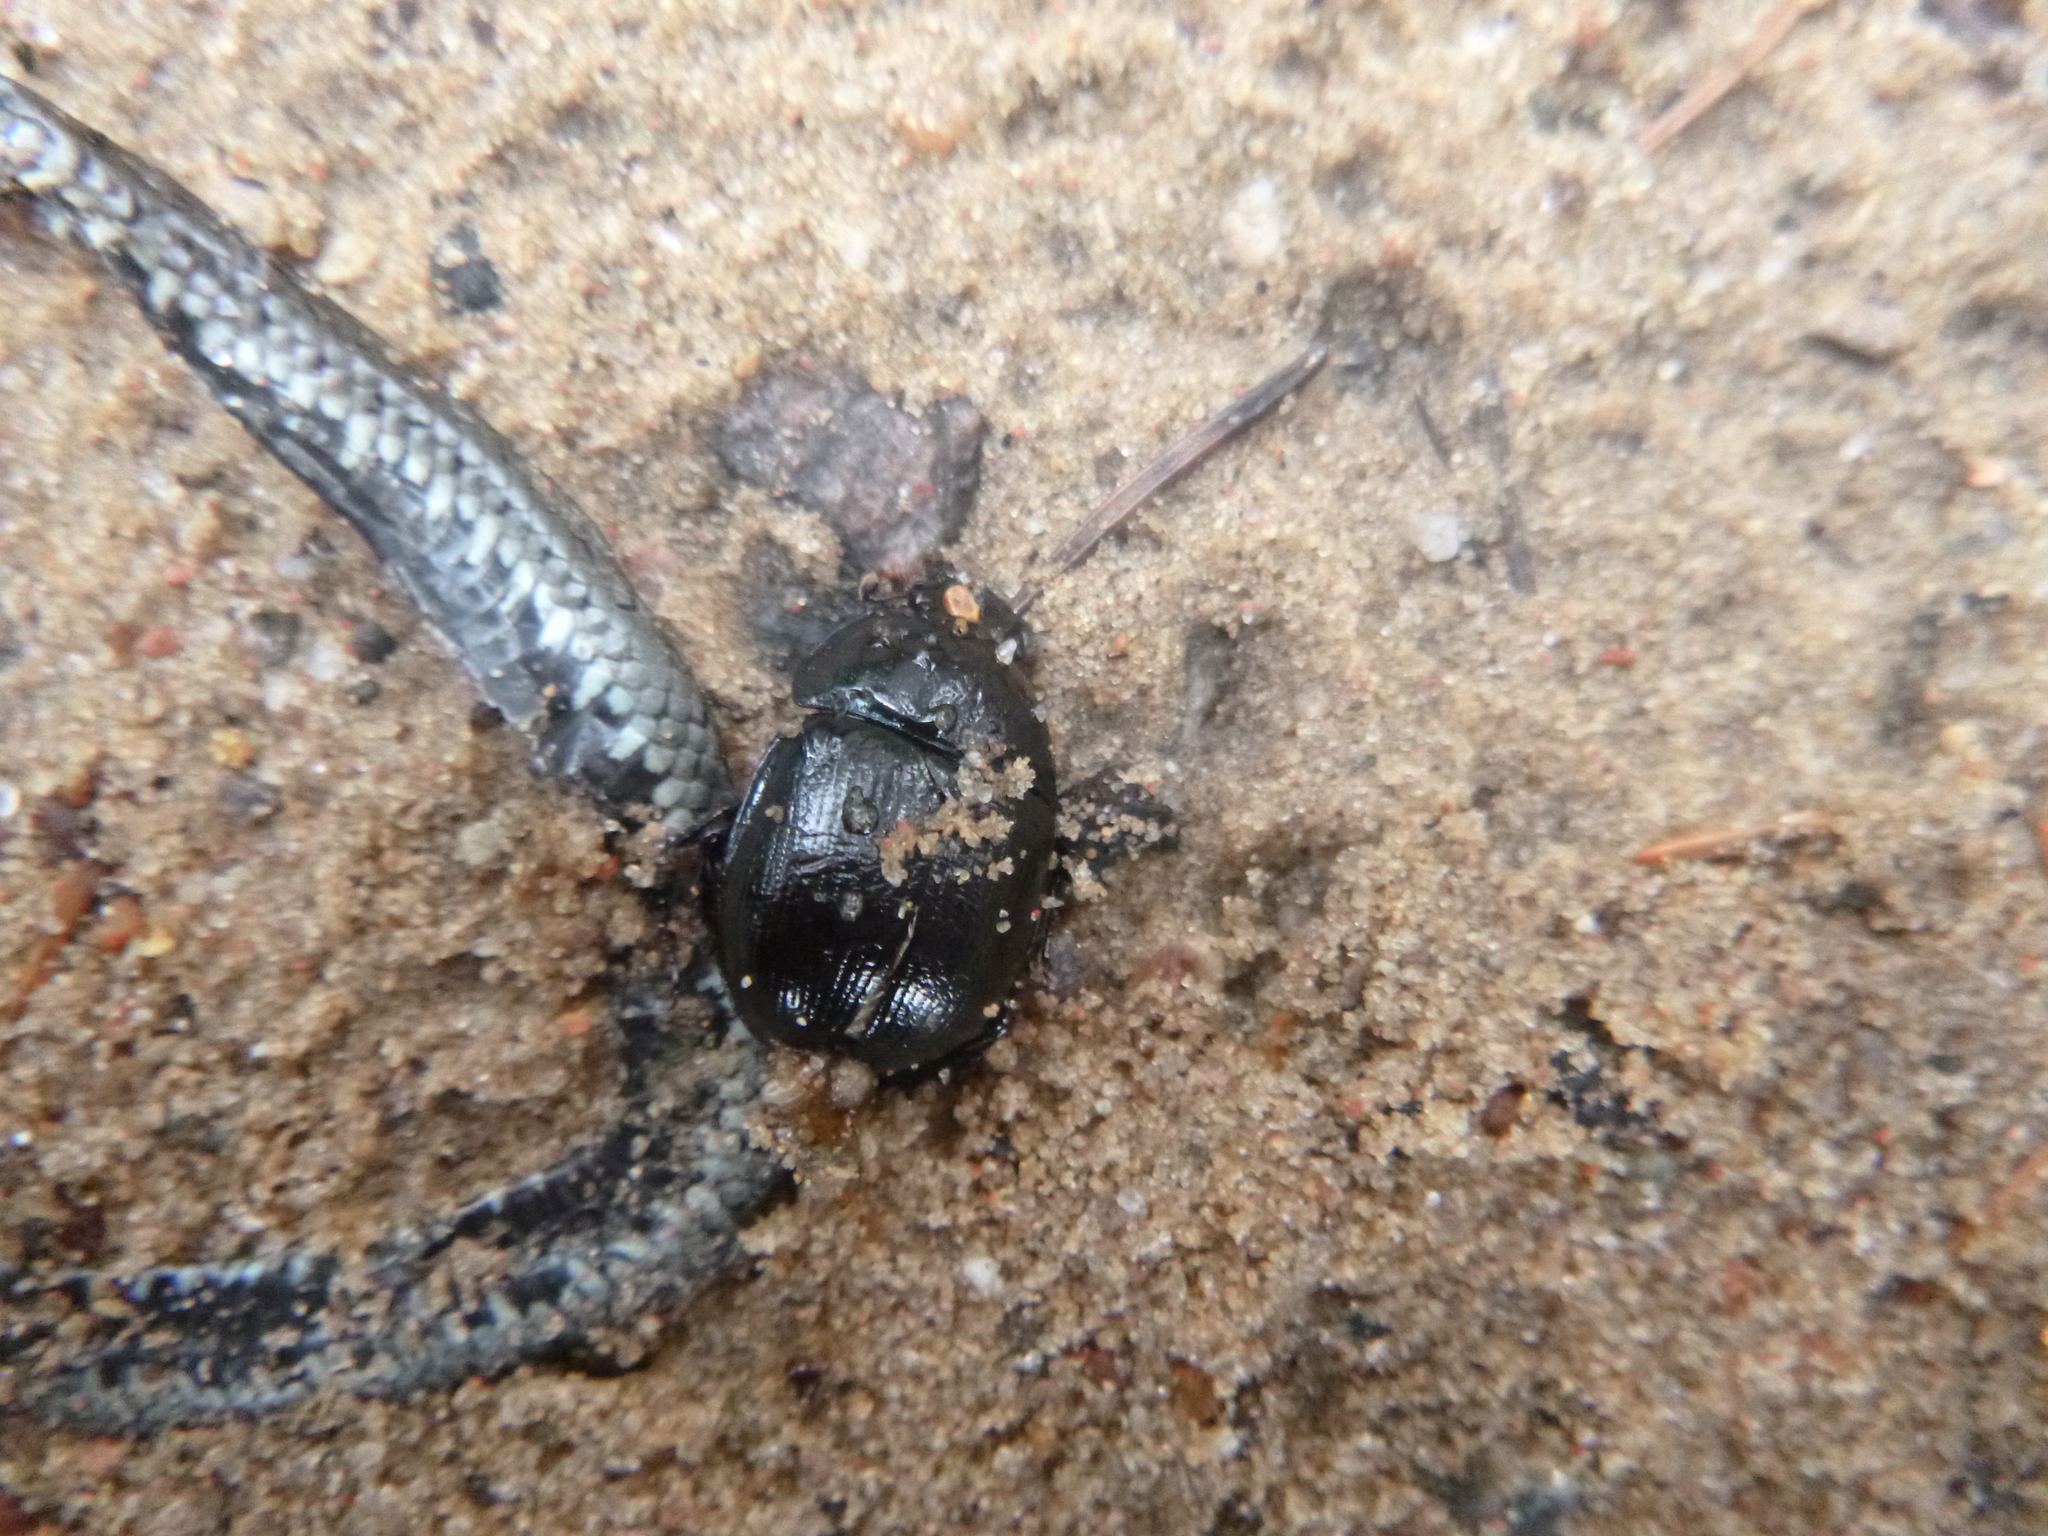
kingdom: Animalia
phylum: Arthropoda
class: Insecta
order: Coleoptera
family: Geotrupidae
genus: Anoplotrupes
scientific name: Anoplotrupes stercorosus
